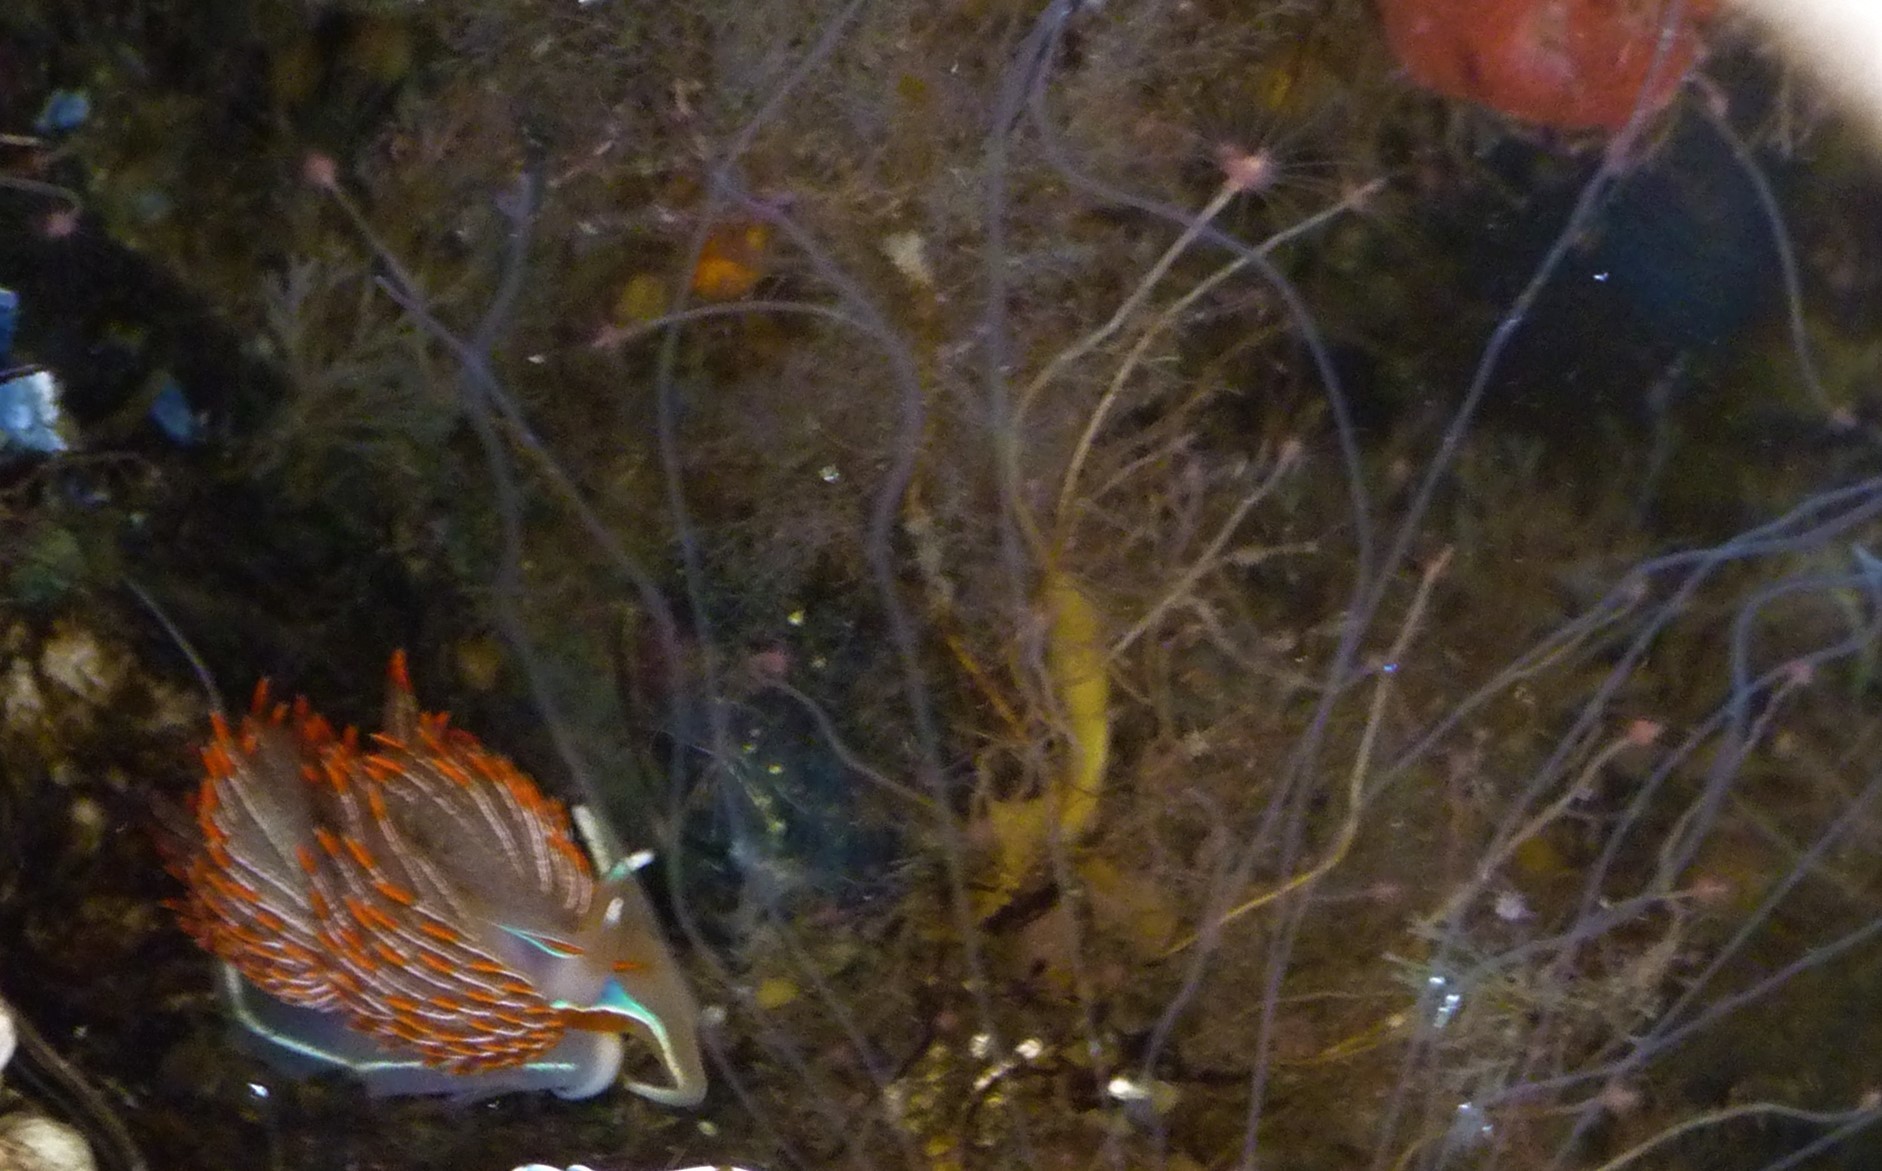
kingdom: Animalia
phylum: Mollusca
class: Gastropoda
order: Nudibranchia
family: Myrrhinidae
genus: Hermissenda
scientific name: Hermissenda crassicornis
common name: Hermissenda
